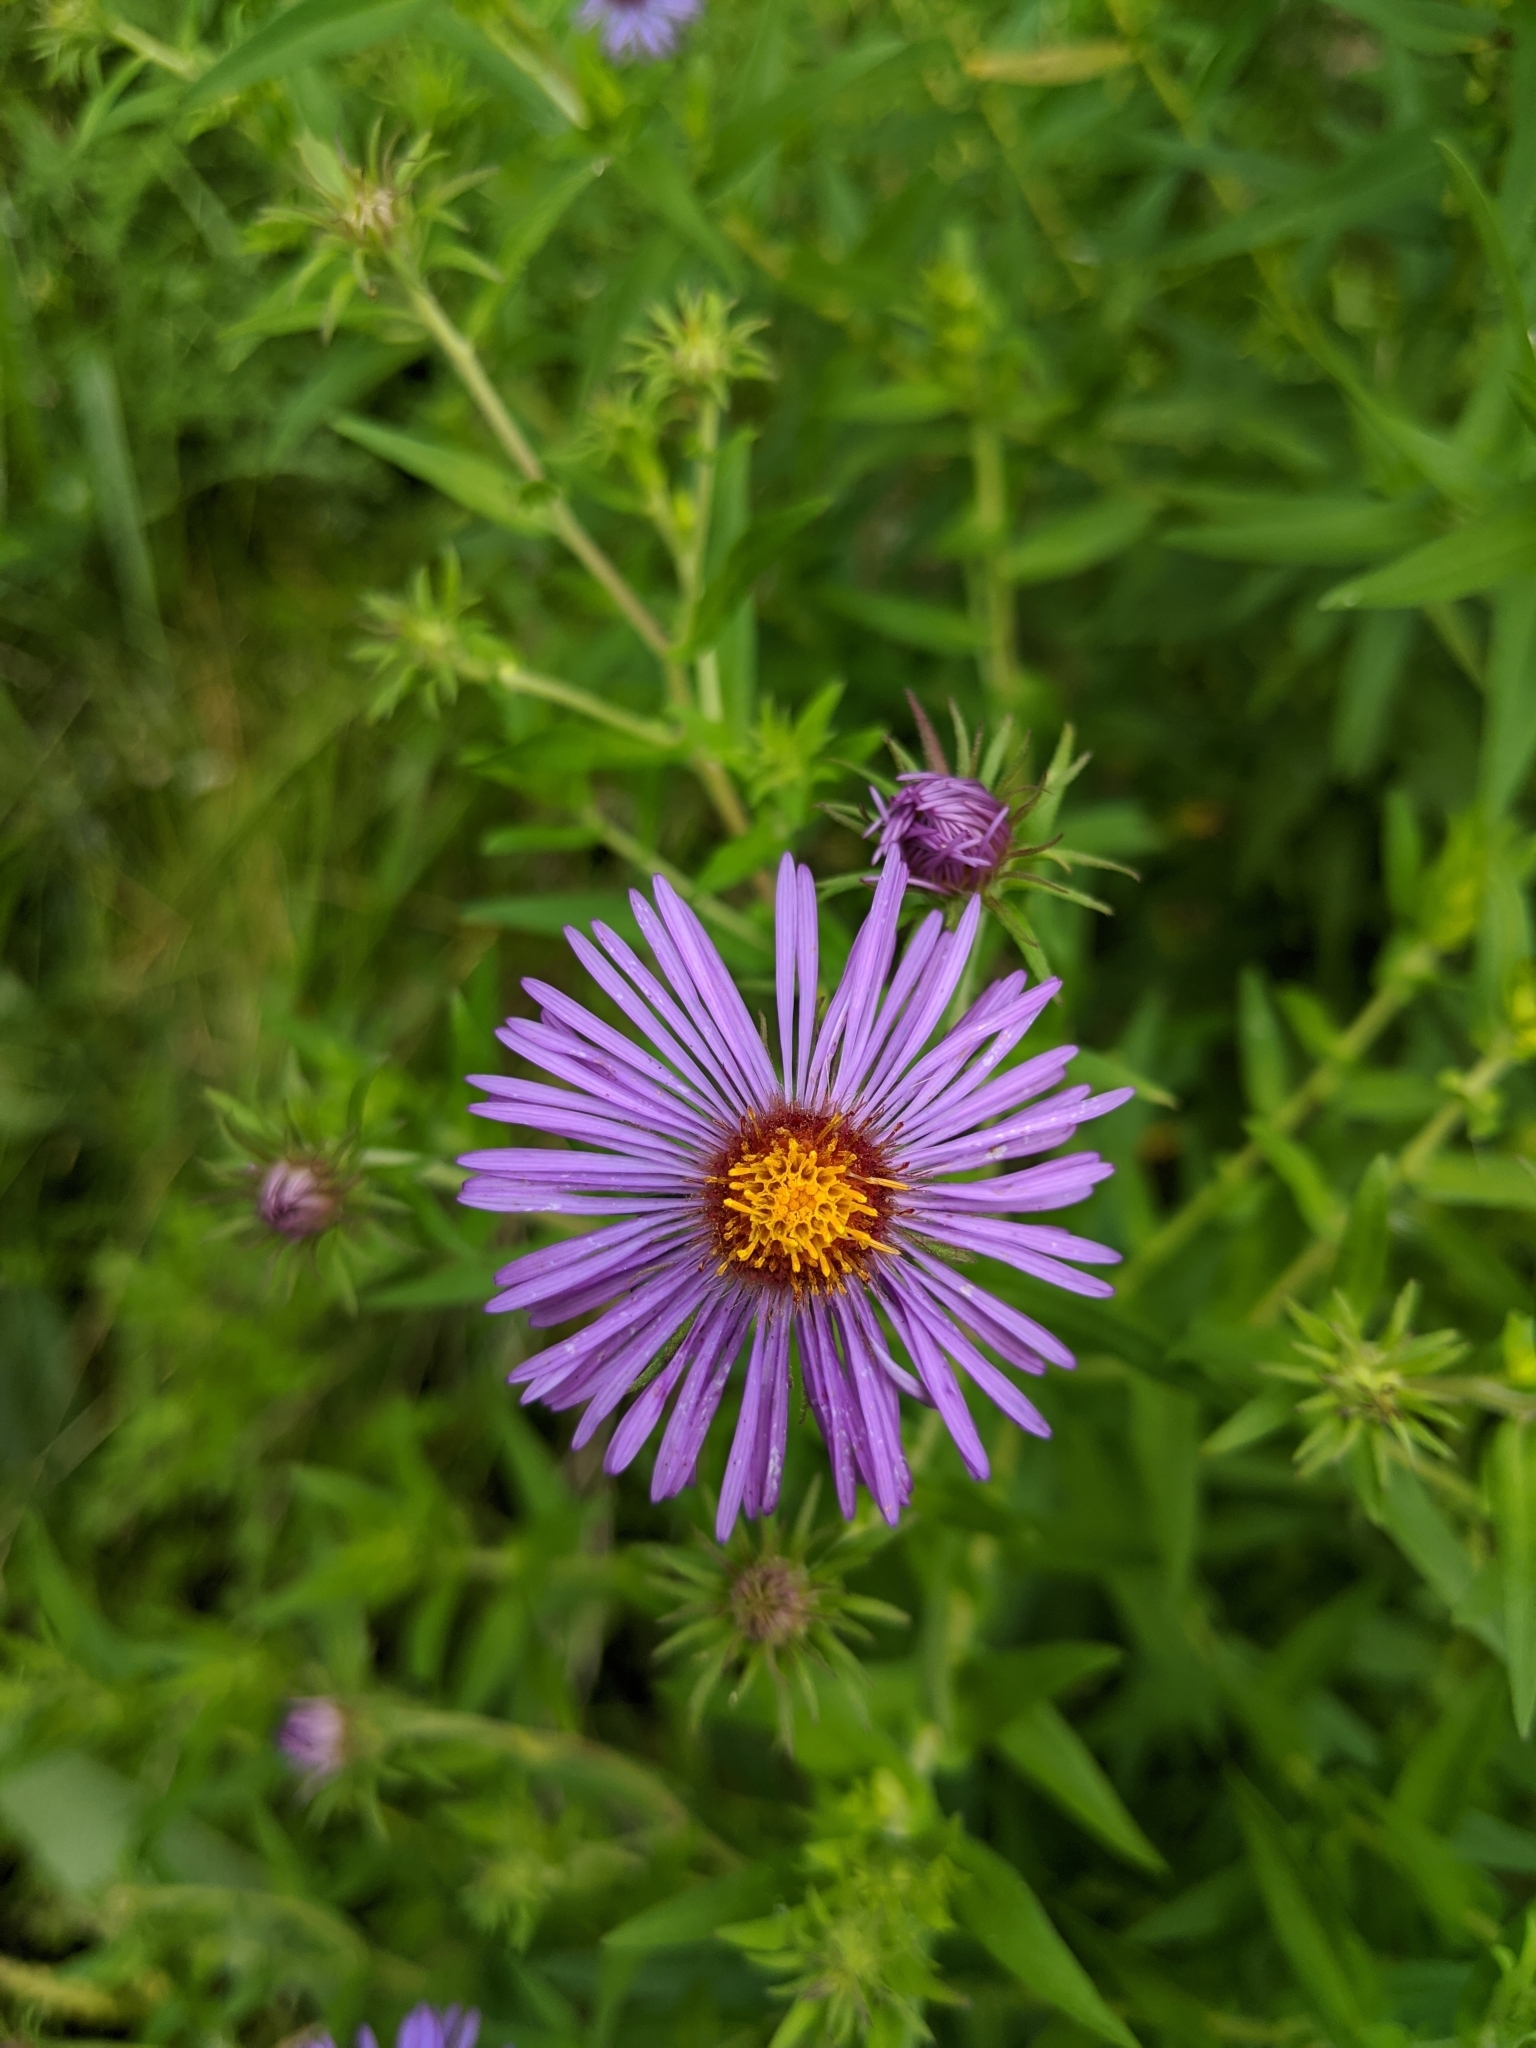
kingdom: Plantae
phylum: Tracheophyta
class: Magnoliopsida
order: Asterales
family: Asteraceae
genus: Symphyotrichum
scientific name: Symphyotrichum novae-angliae
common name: Michaelmas daisy
